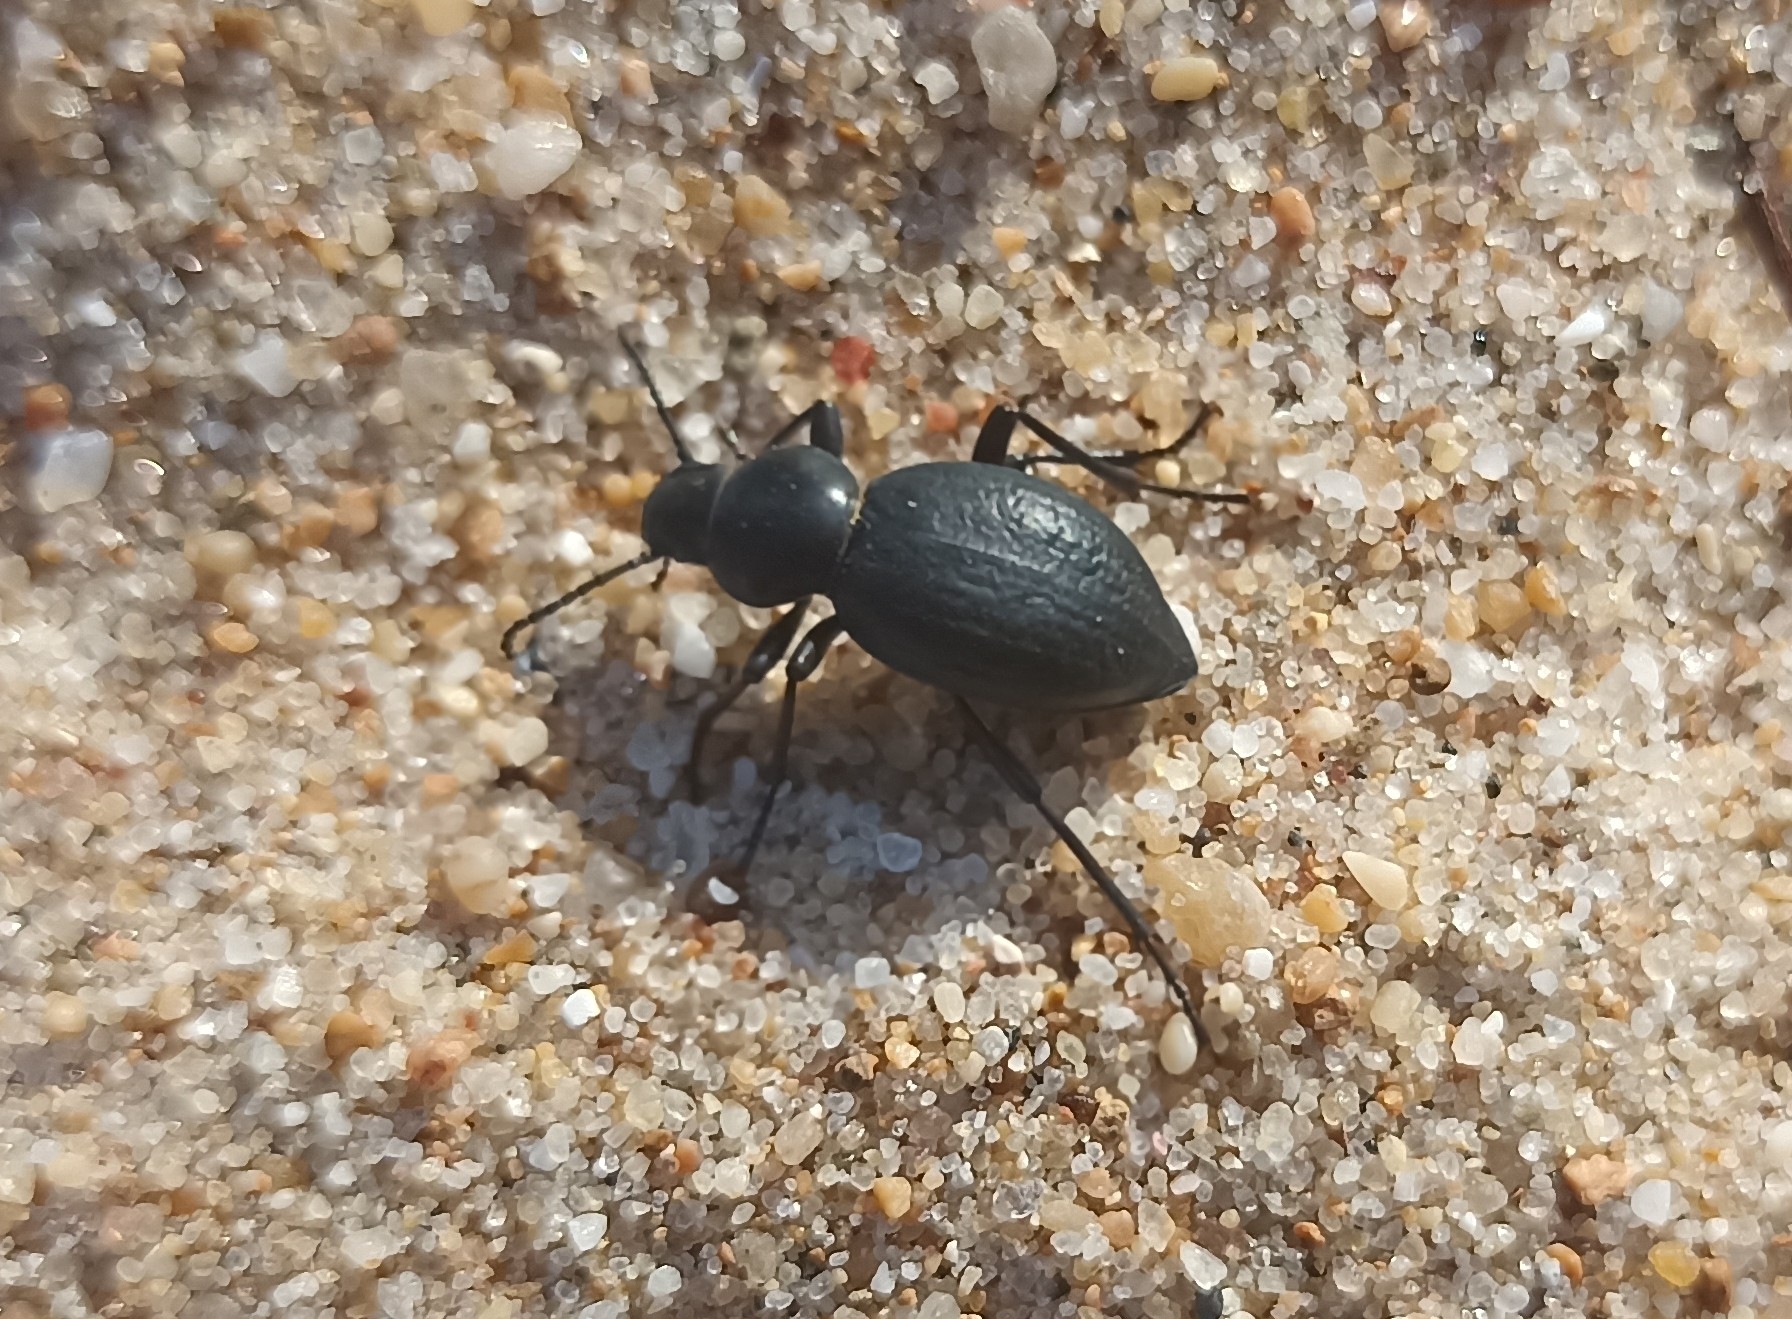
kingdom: Animalia
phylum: Arthropoda
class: Insecta
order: Coleoptera
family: Tenebrionidae
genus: Tentyria
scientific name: Tentyria interrupta
